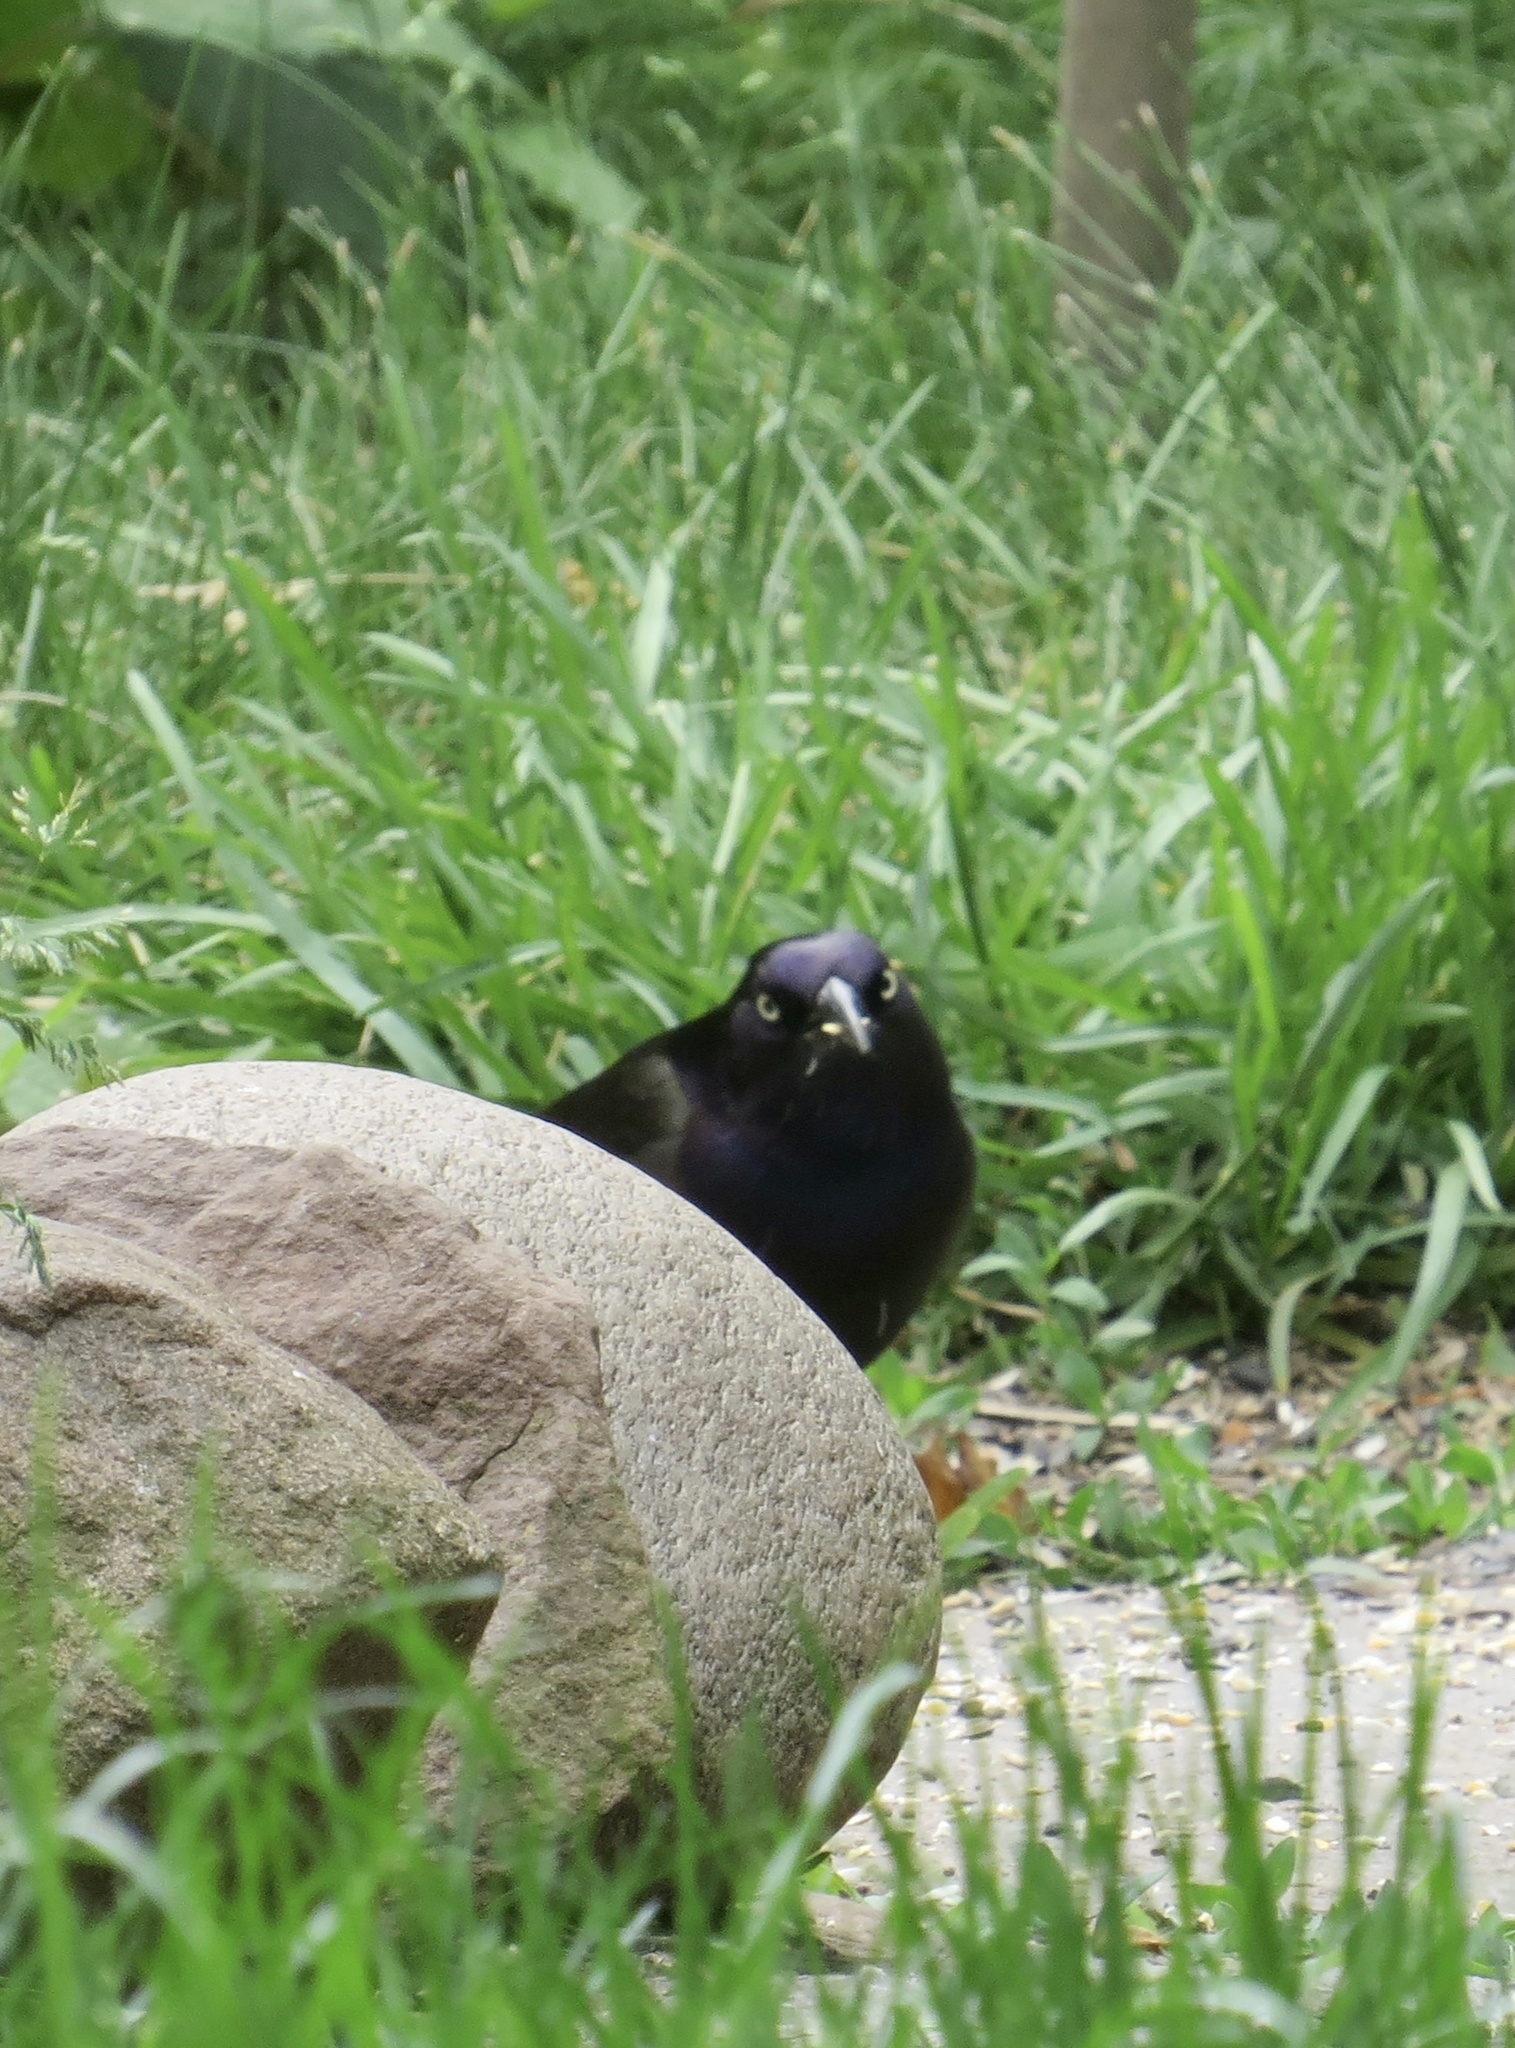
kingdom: Animalia
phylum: Chordata
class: Aves
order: Passeriformes
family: Icteridae
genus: Quiscalus
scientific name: Quiscalus quiscula
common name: Common grackle
